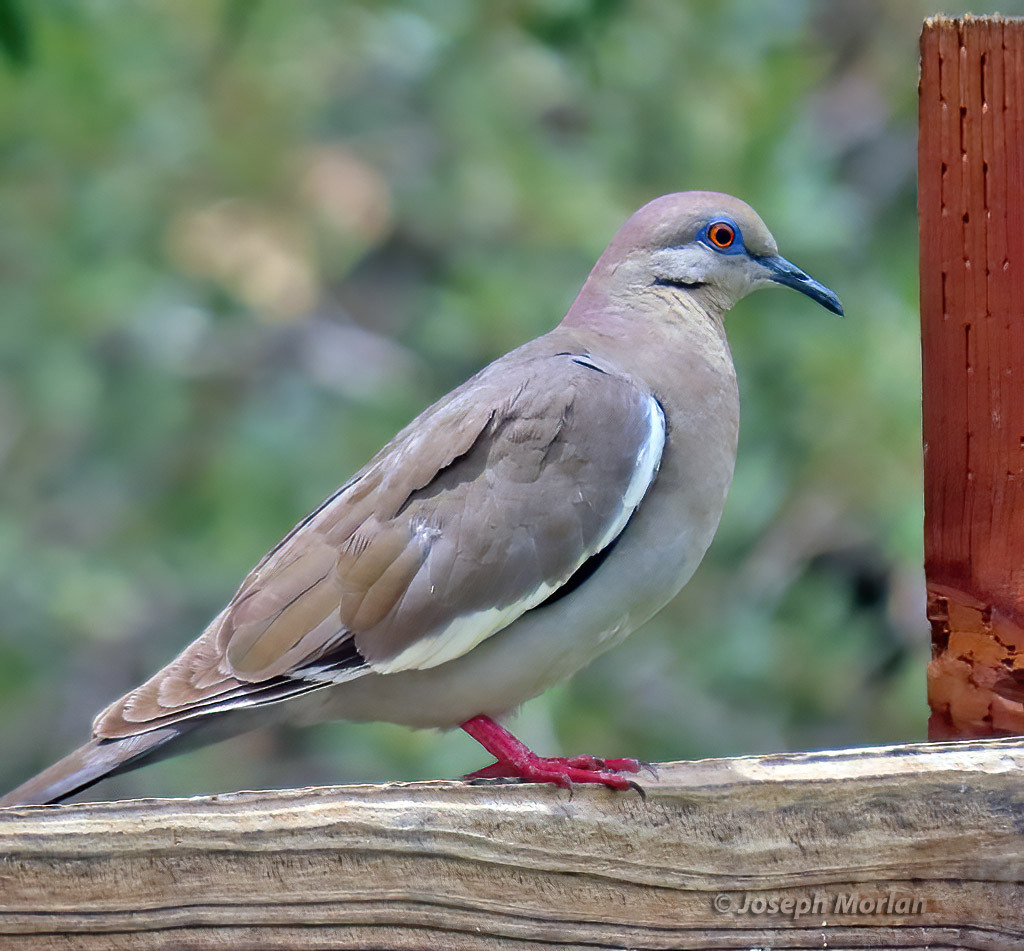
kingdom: Animalia
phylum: Chordata
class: Aves
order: Columbiformes
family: Columbidae
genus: Zenaida
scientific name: Zenaida asiatica
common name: White-winged dove
